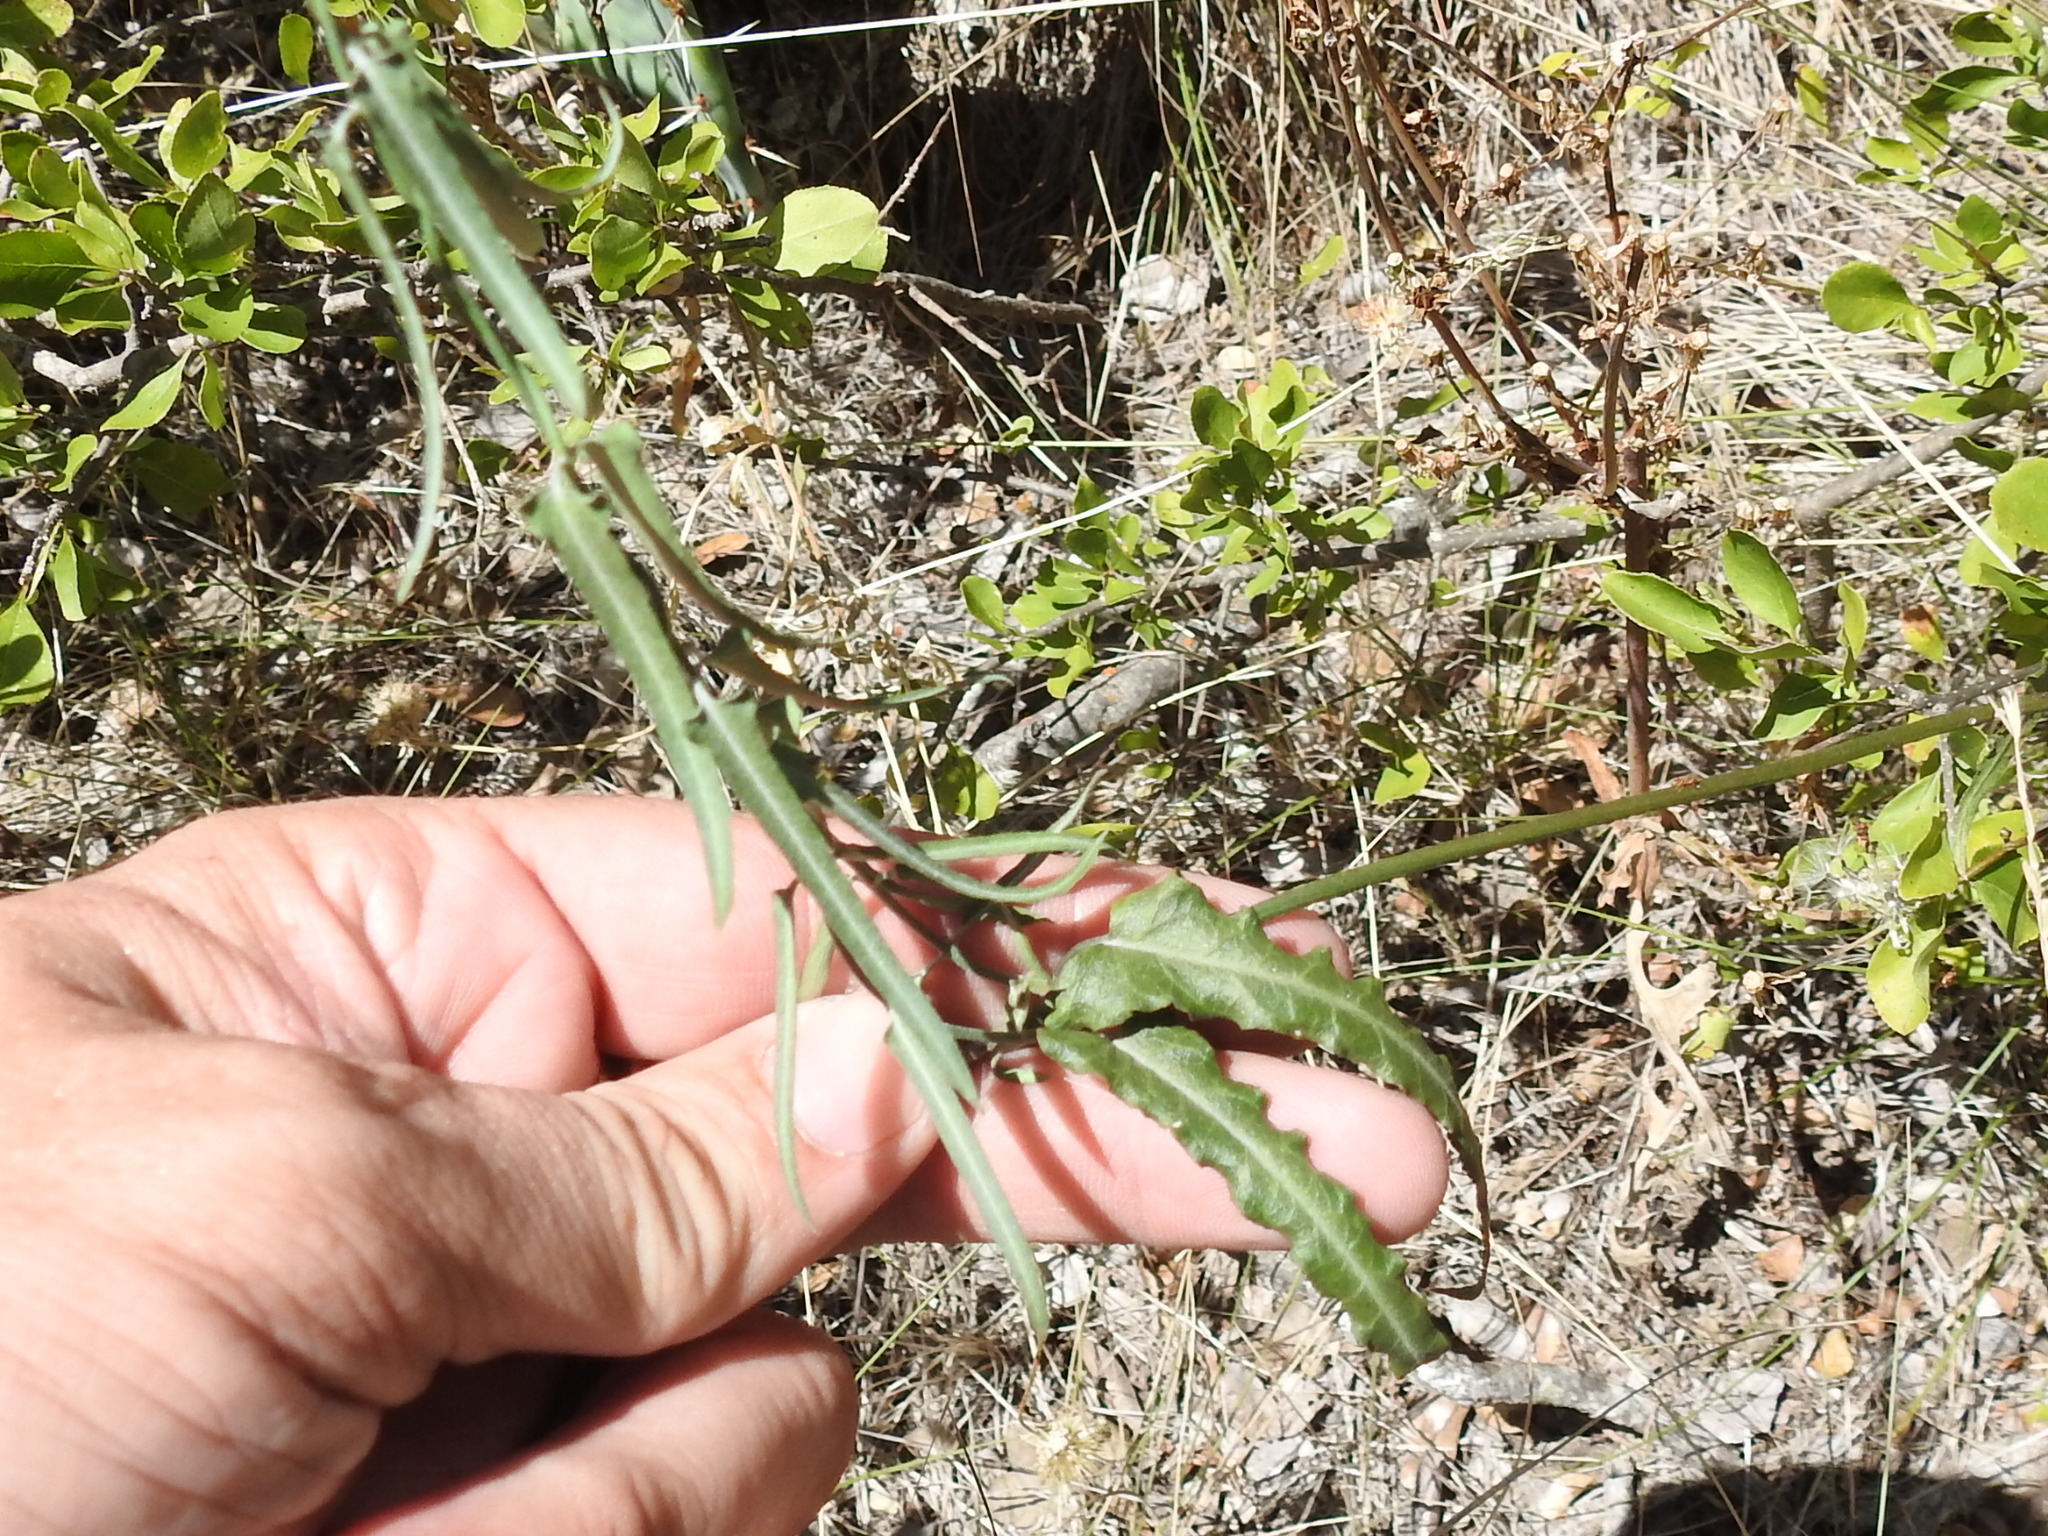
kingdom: Plantae
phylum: Tracheophyta
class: Magnoliopsida
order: Gentianales
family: Apocynaceae
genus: Funastrum
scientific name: Funastrum crispum
